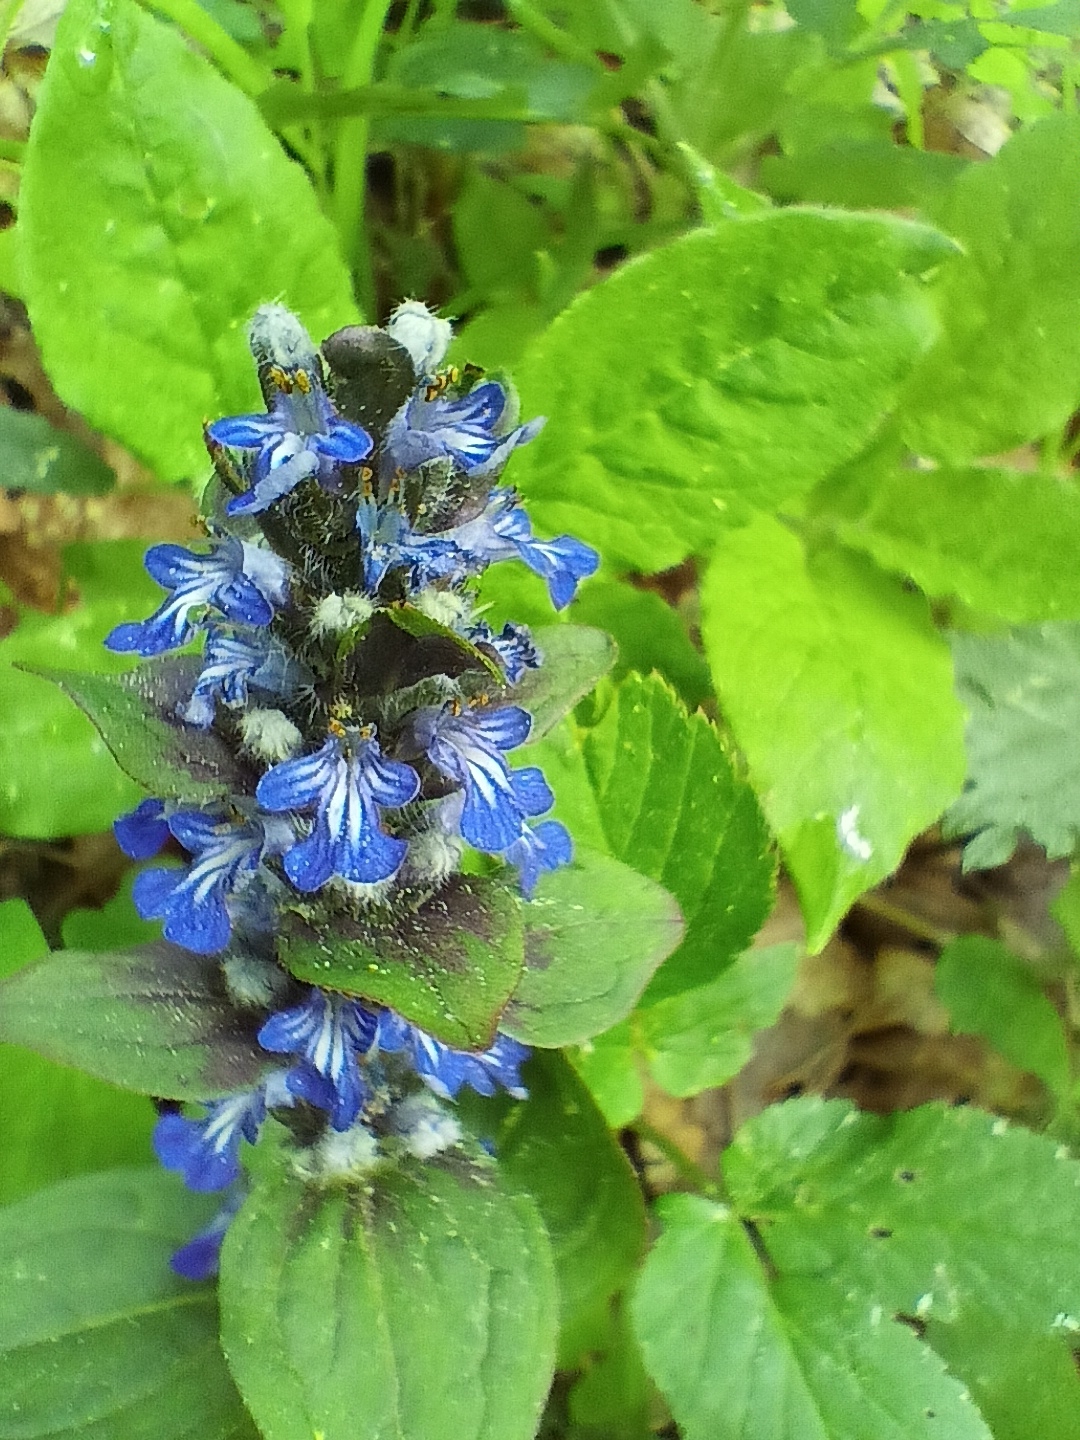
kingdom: Plantae
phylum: Tracheophyta
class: Magnoliopsida
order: Lamiales
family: Lamiaceae
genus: Ajuga
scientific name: Ajuga reptans
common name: Bugle
